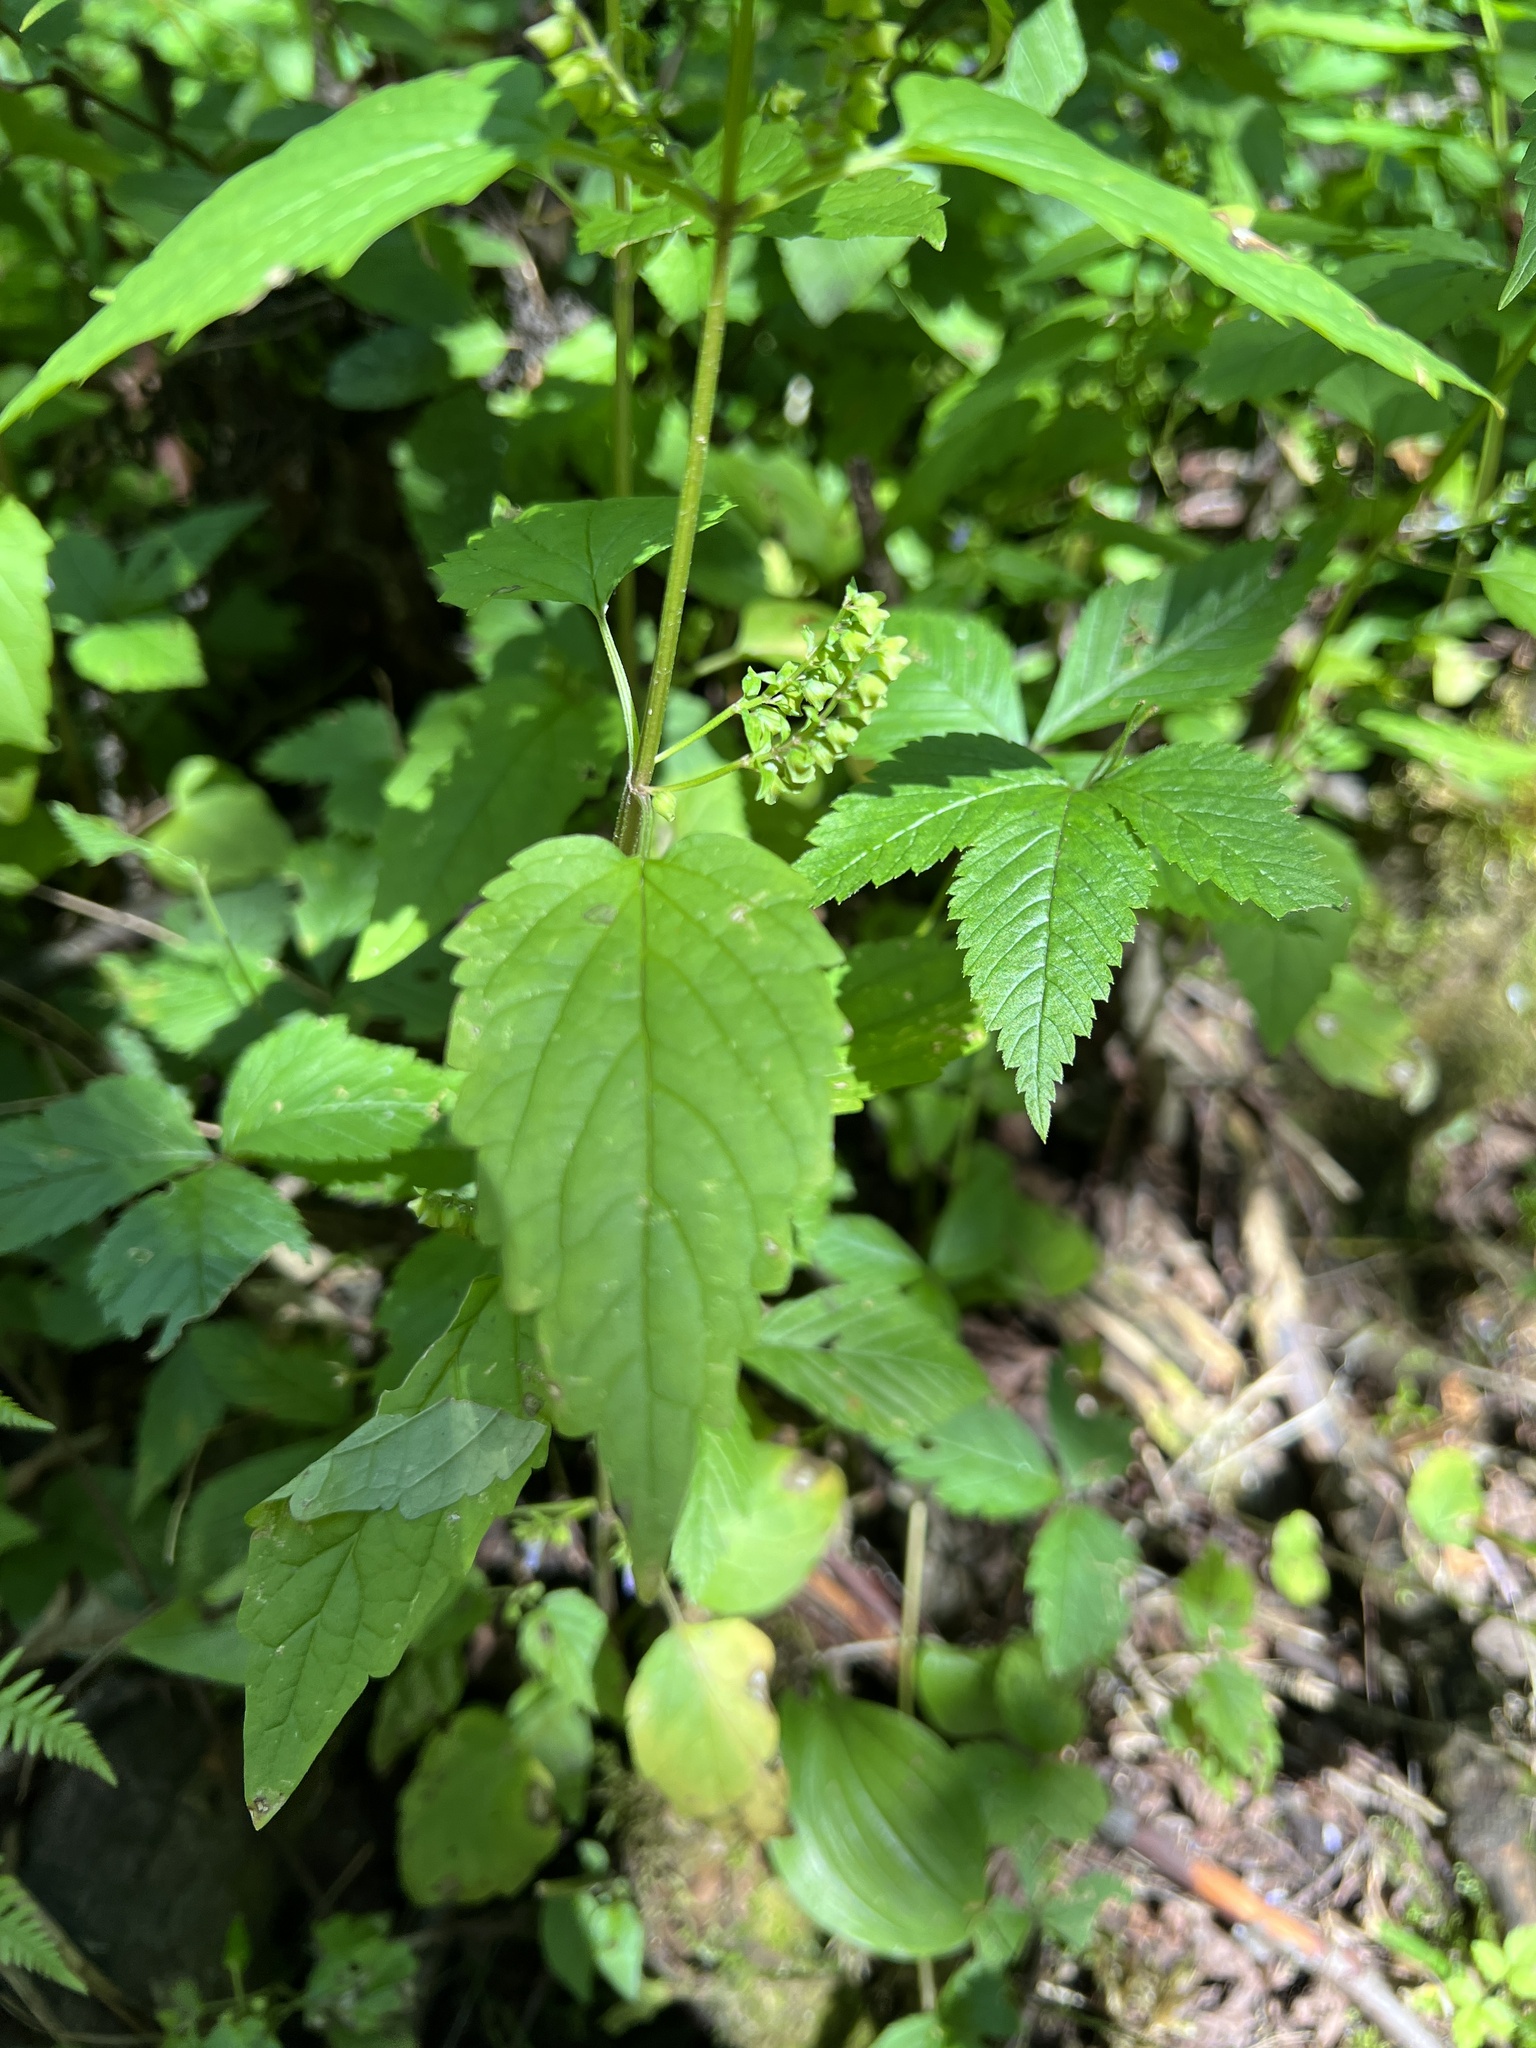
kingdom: Plantae
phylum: Tracheophyta
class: Magnoliopsida
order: Lamiales
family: Lamiaceae
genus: Scutellaria
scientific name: Scutellaria lateriflora
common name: Blue skullcap
